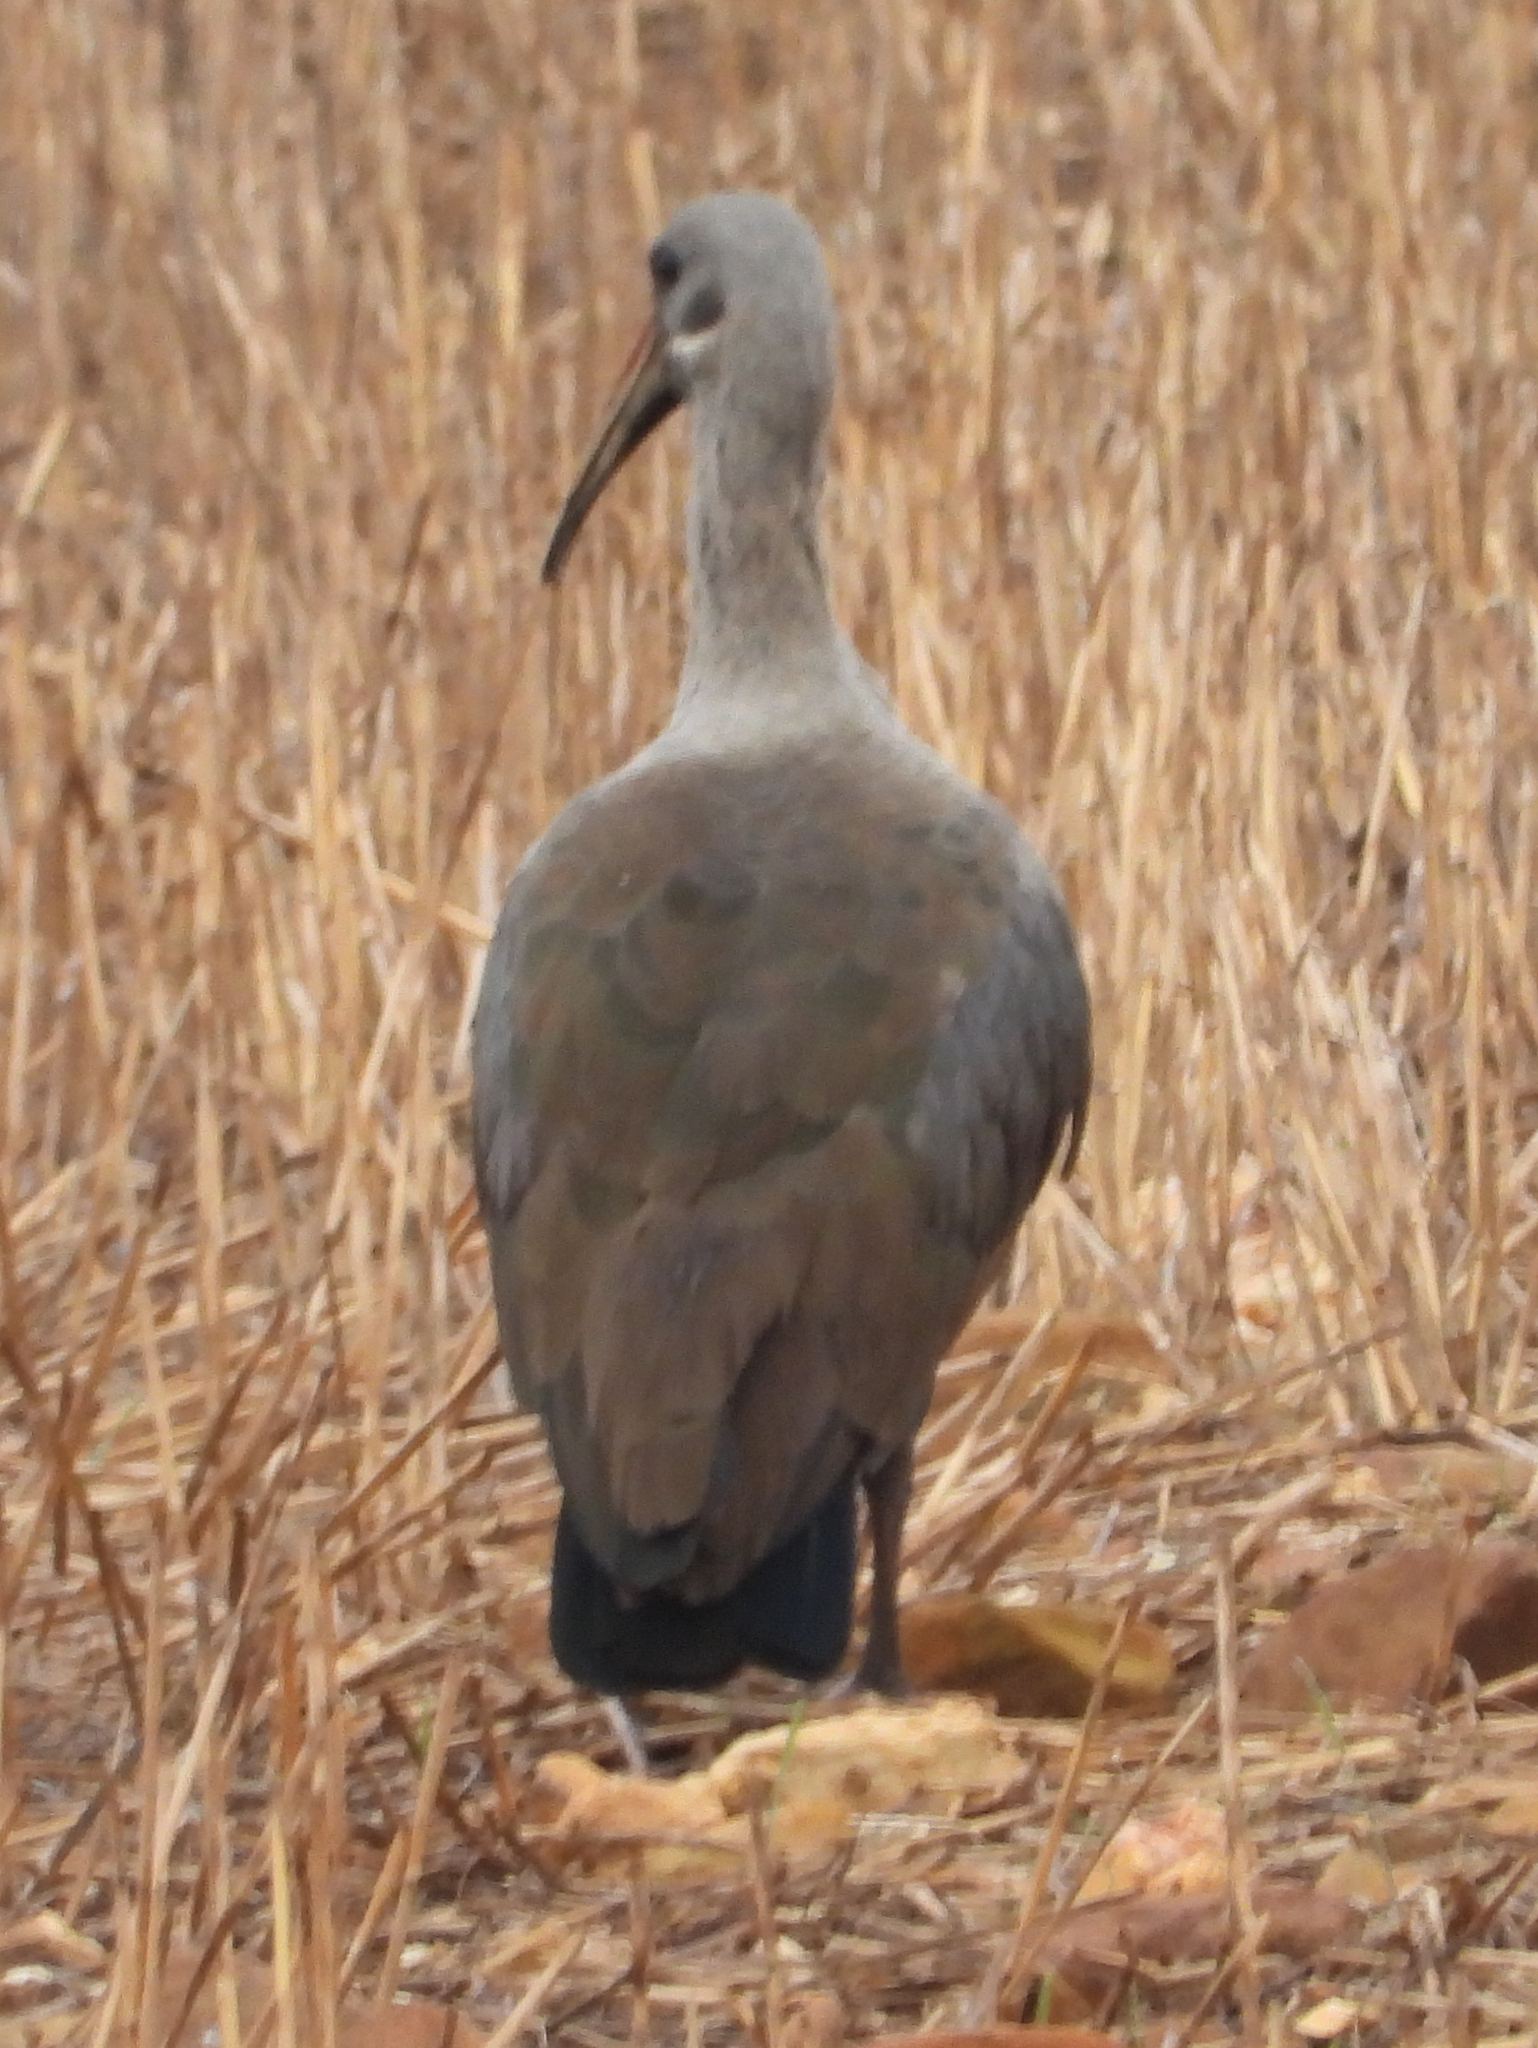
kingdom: Animalia
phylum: Chordata
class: Aves
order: Pelecaniformes
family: Threskiornithidae
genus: Bostrychia
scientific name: Bostrychia hagedash
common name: Hadada ibis
